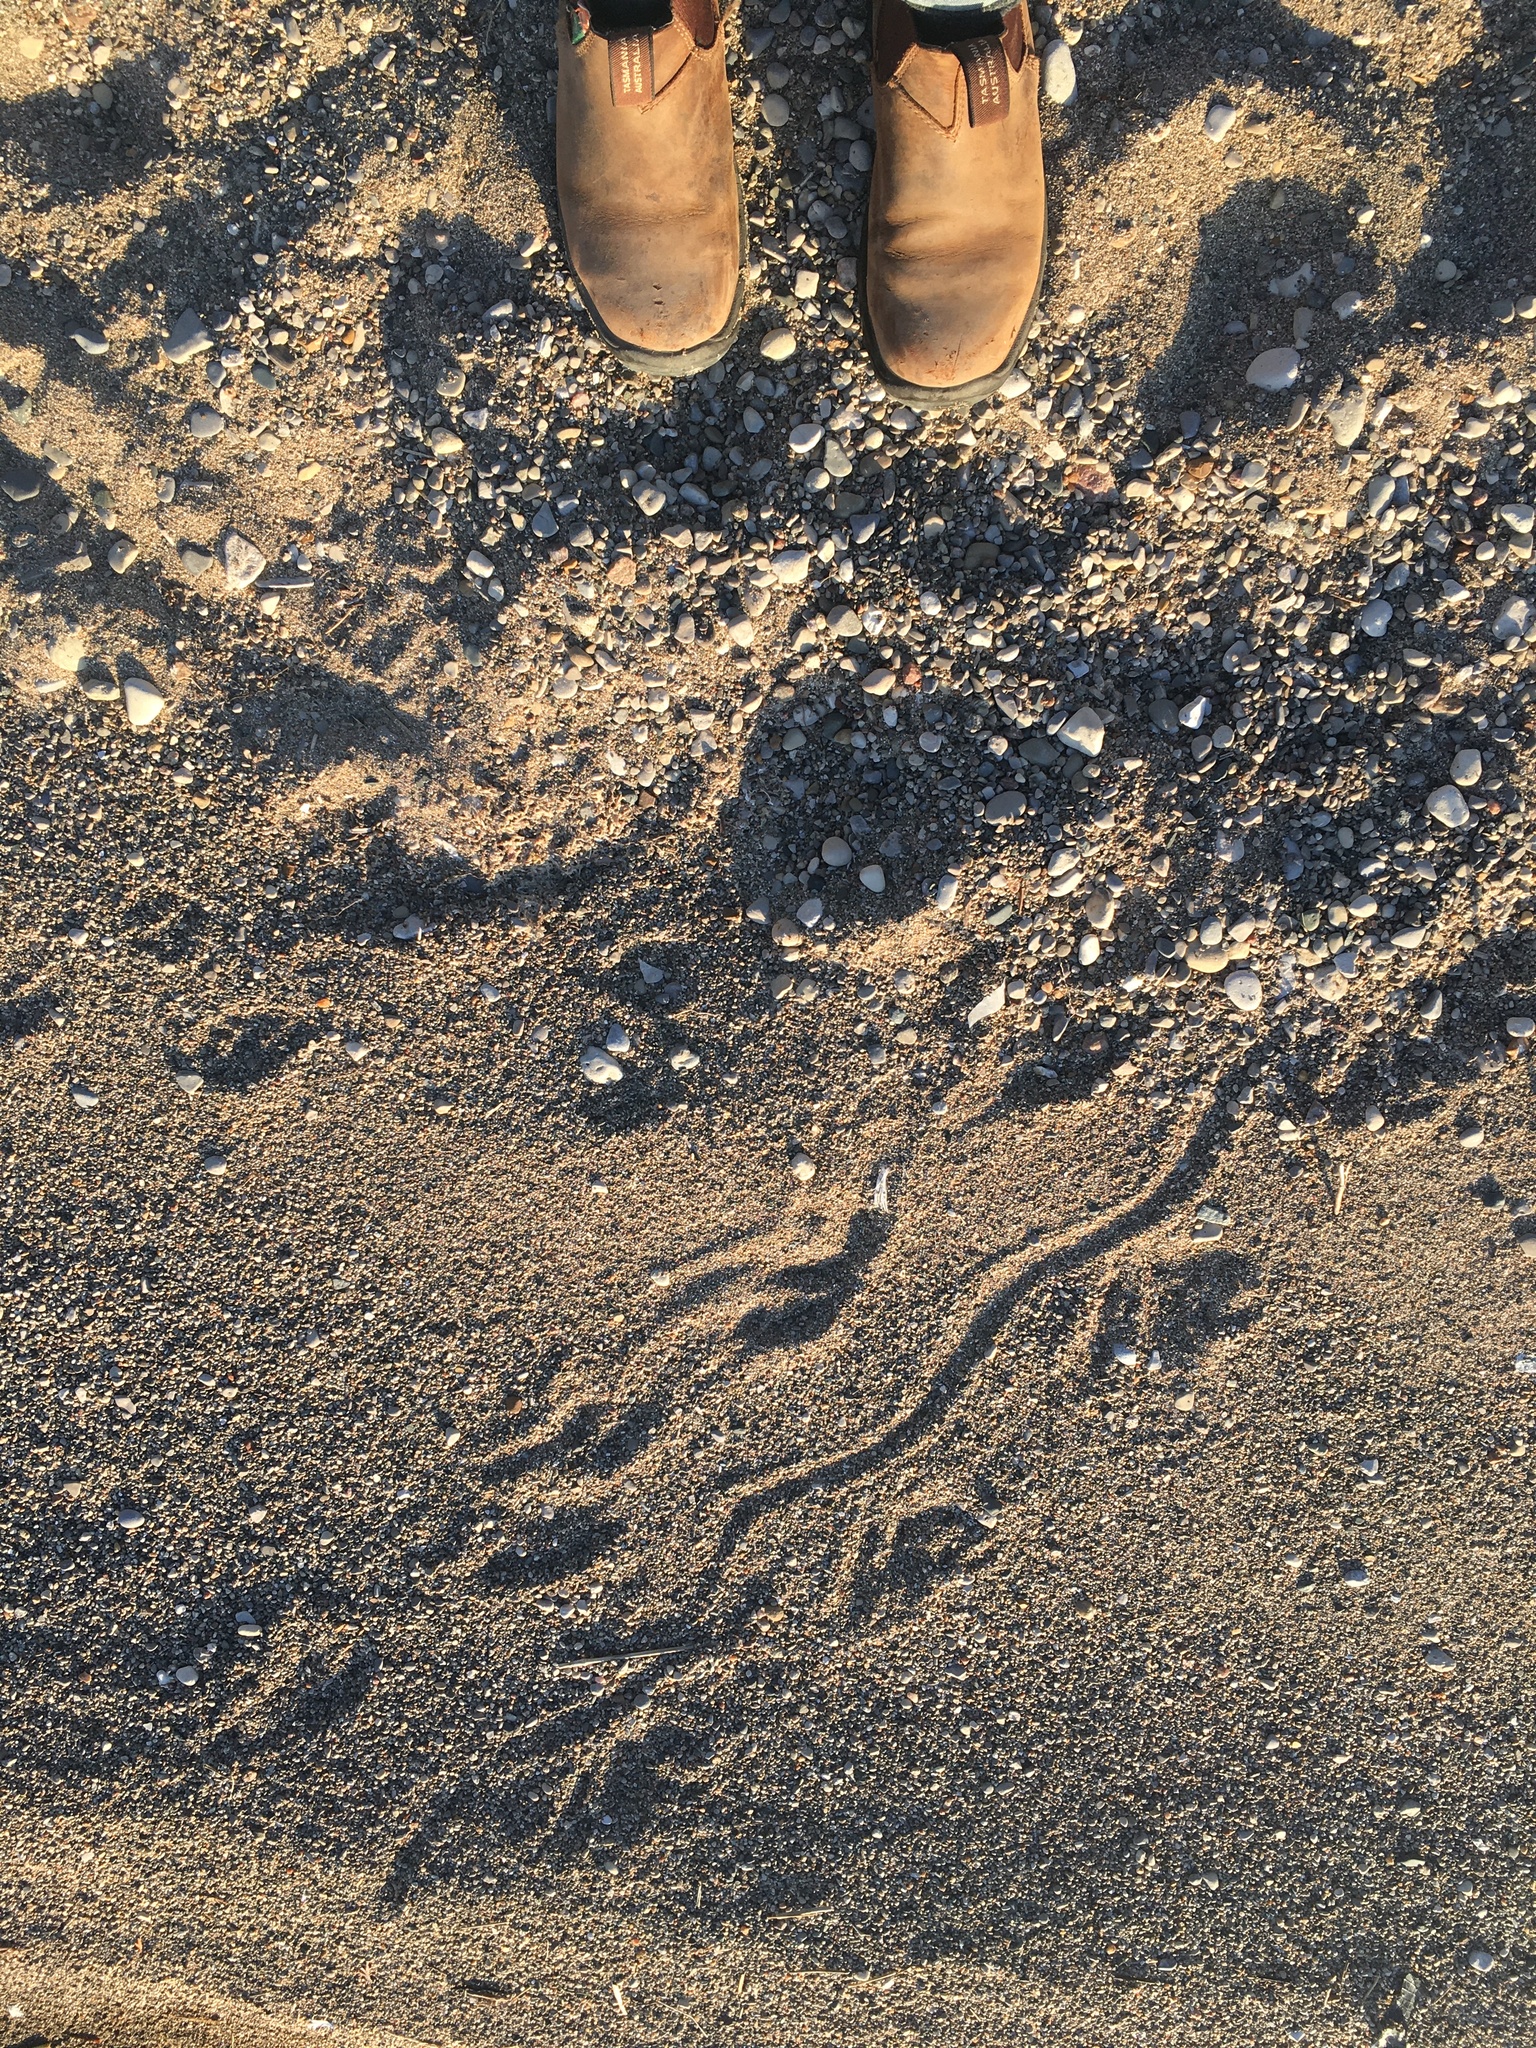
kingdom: Animalia
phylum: Chordata
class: Testudines
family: Chelydridae
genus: Chelydra
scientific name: Chelydra serpentina
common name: Common snapping turtle
